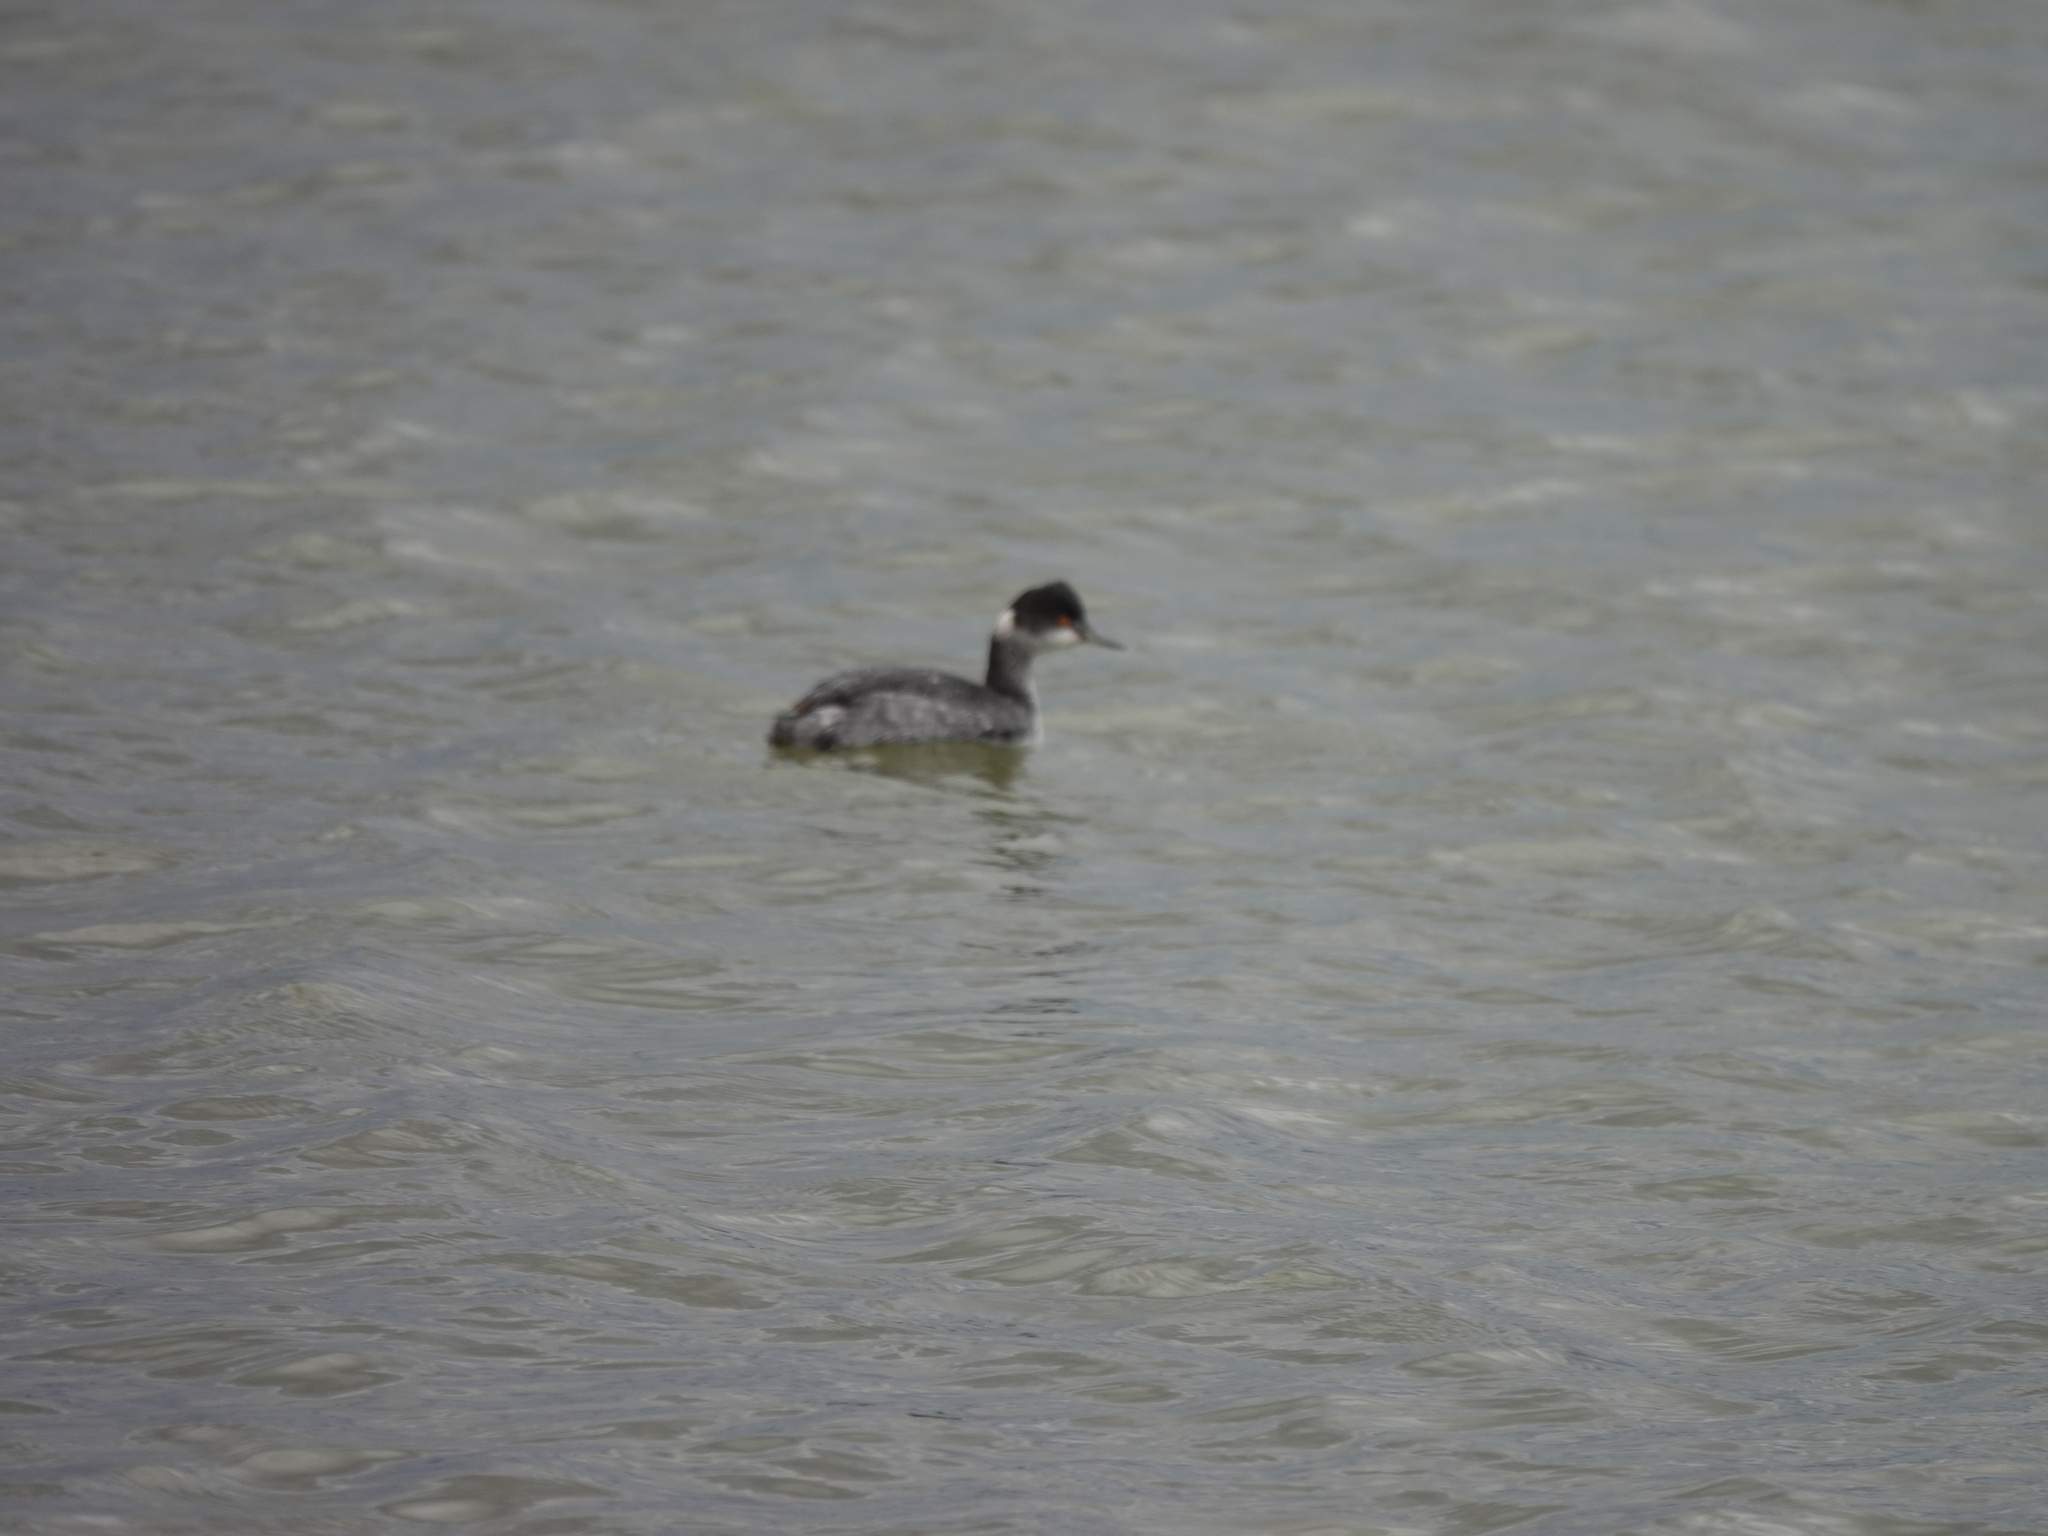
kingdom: Animalia
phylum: Chordata
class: Aves
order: Podicipediformes
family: Podicipedidae
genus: Podiceps
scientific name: Podiceps nigricollis
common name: Black-necked grebe
